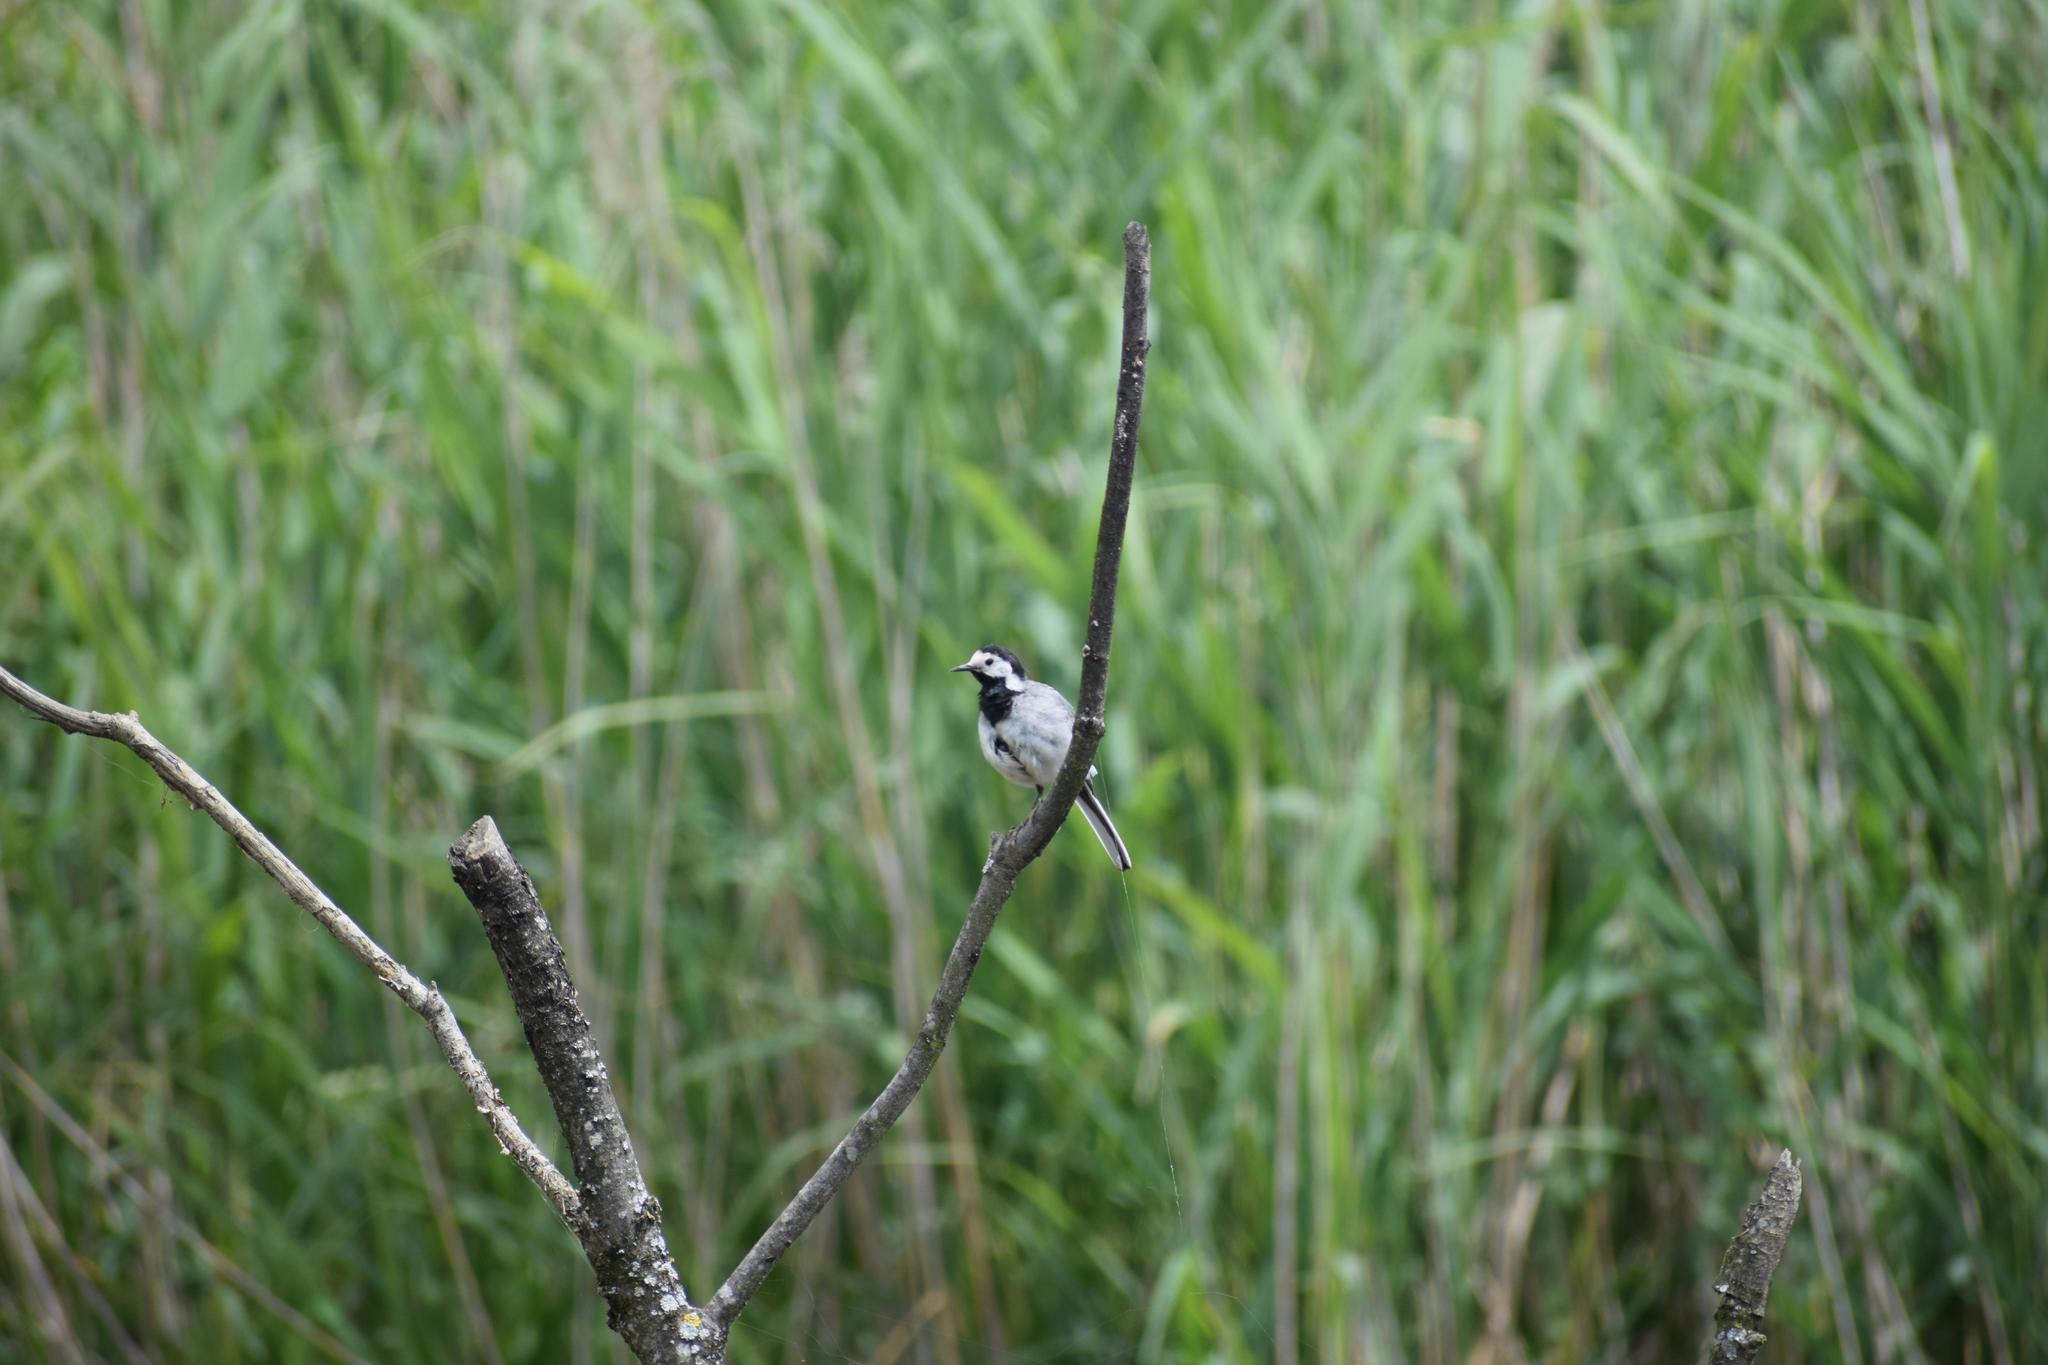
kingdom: Animalia
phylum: Chordata
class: Aves
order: Passeriformes
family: Motacillidae
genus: Motacilla
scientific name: Motacilla alba
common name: White wagtail
